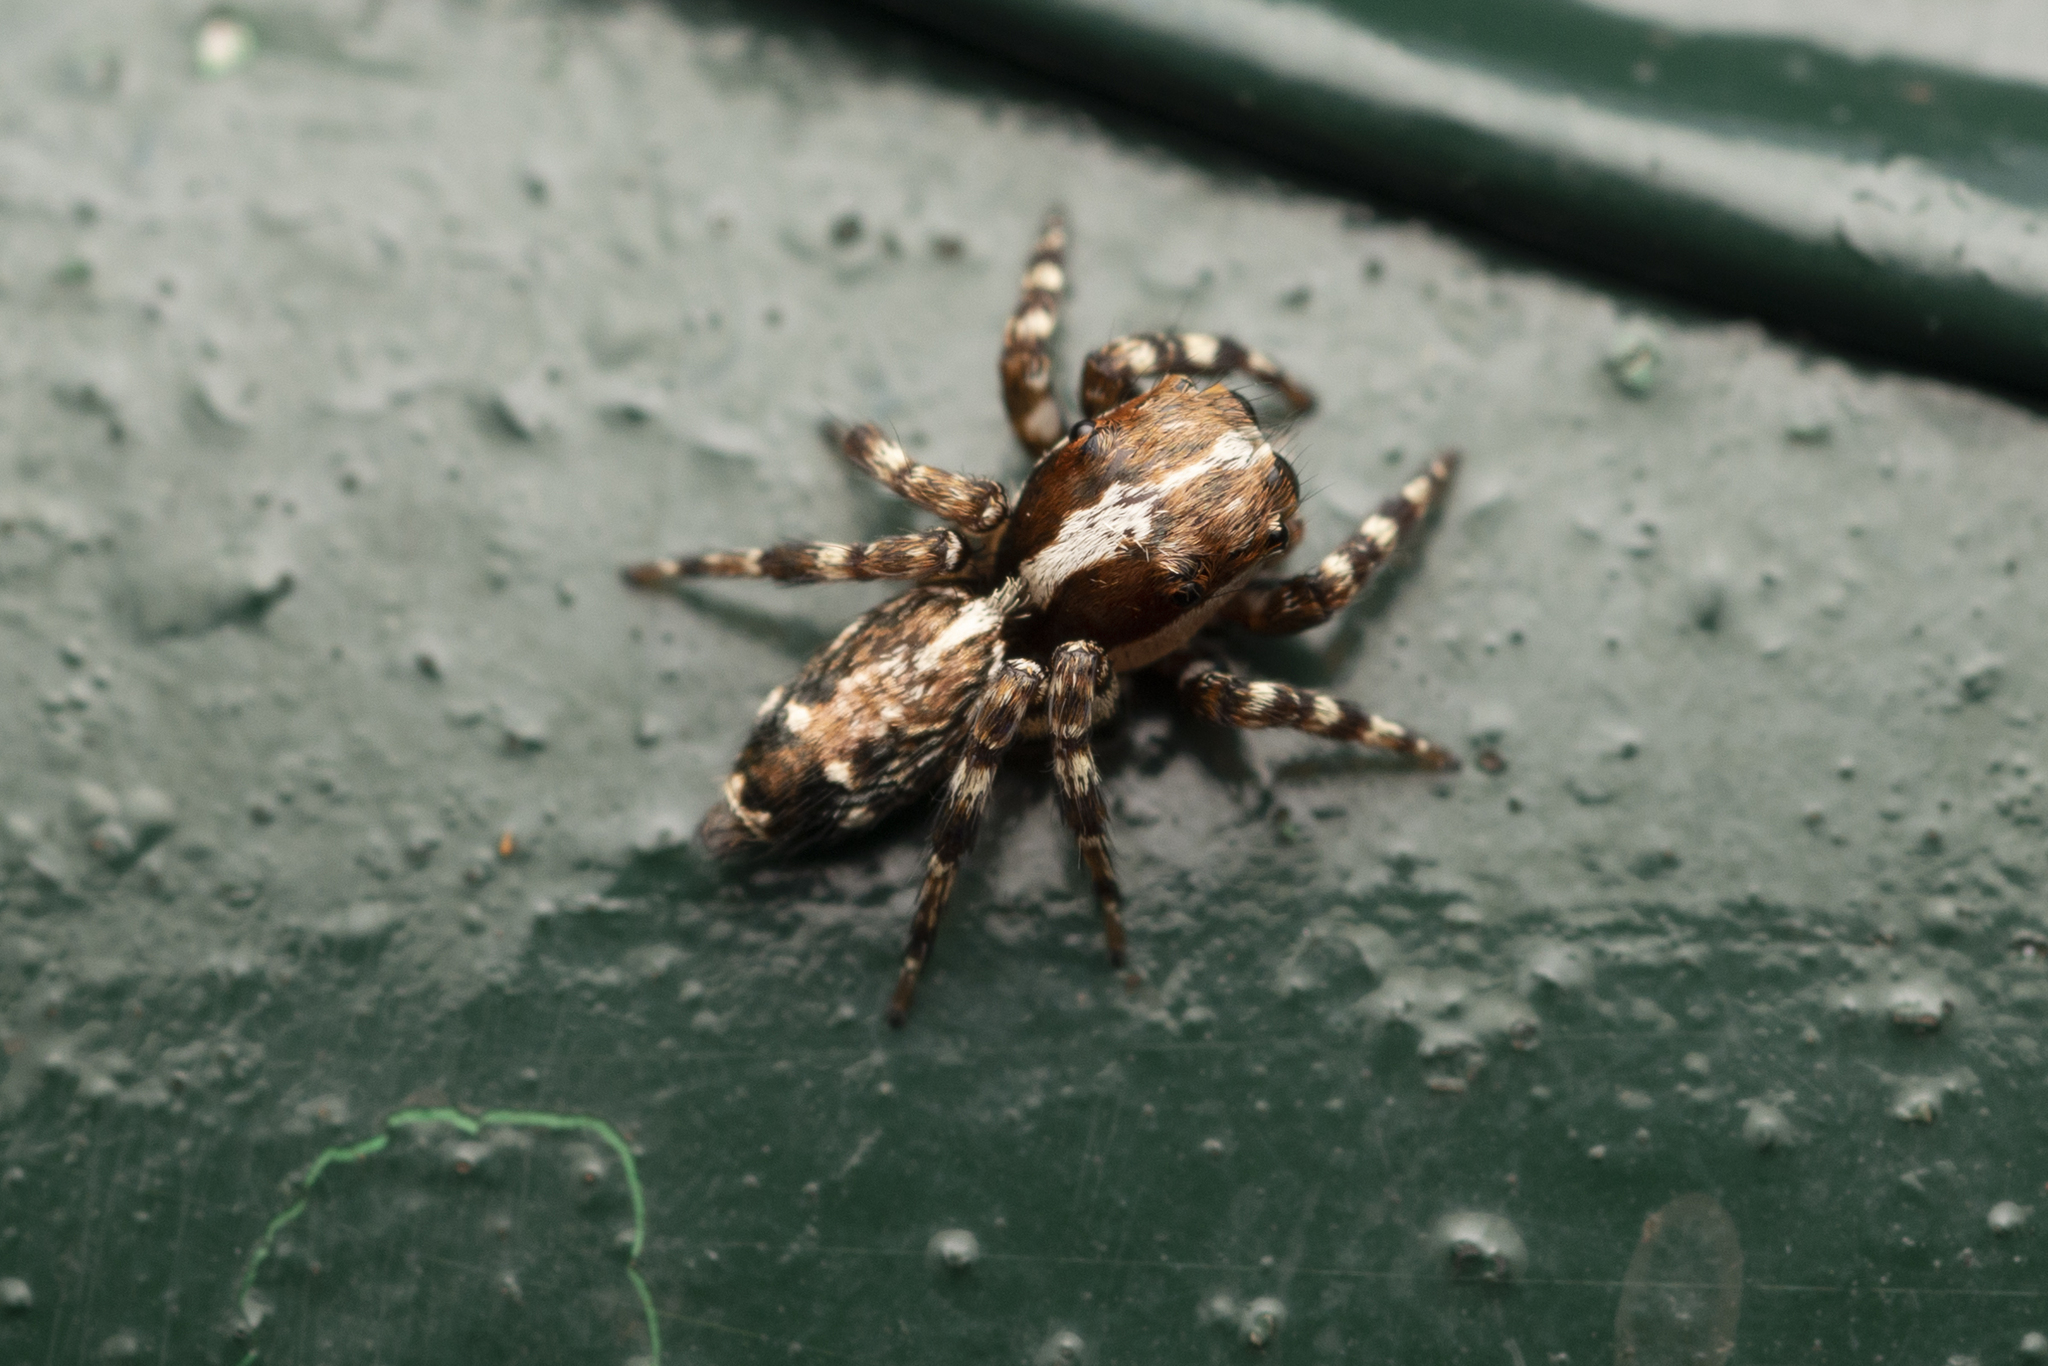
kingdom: Animalia
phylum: Arthropoda
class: Arachnida
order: Araneae
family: Salticidae
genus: Thyene
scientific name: Thyene orientalis
